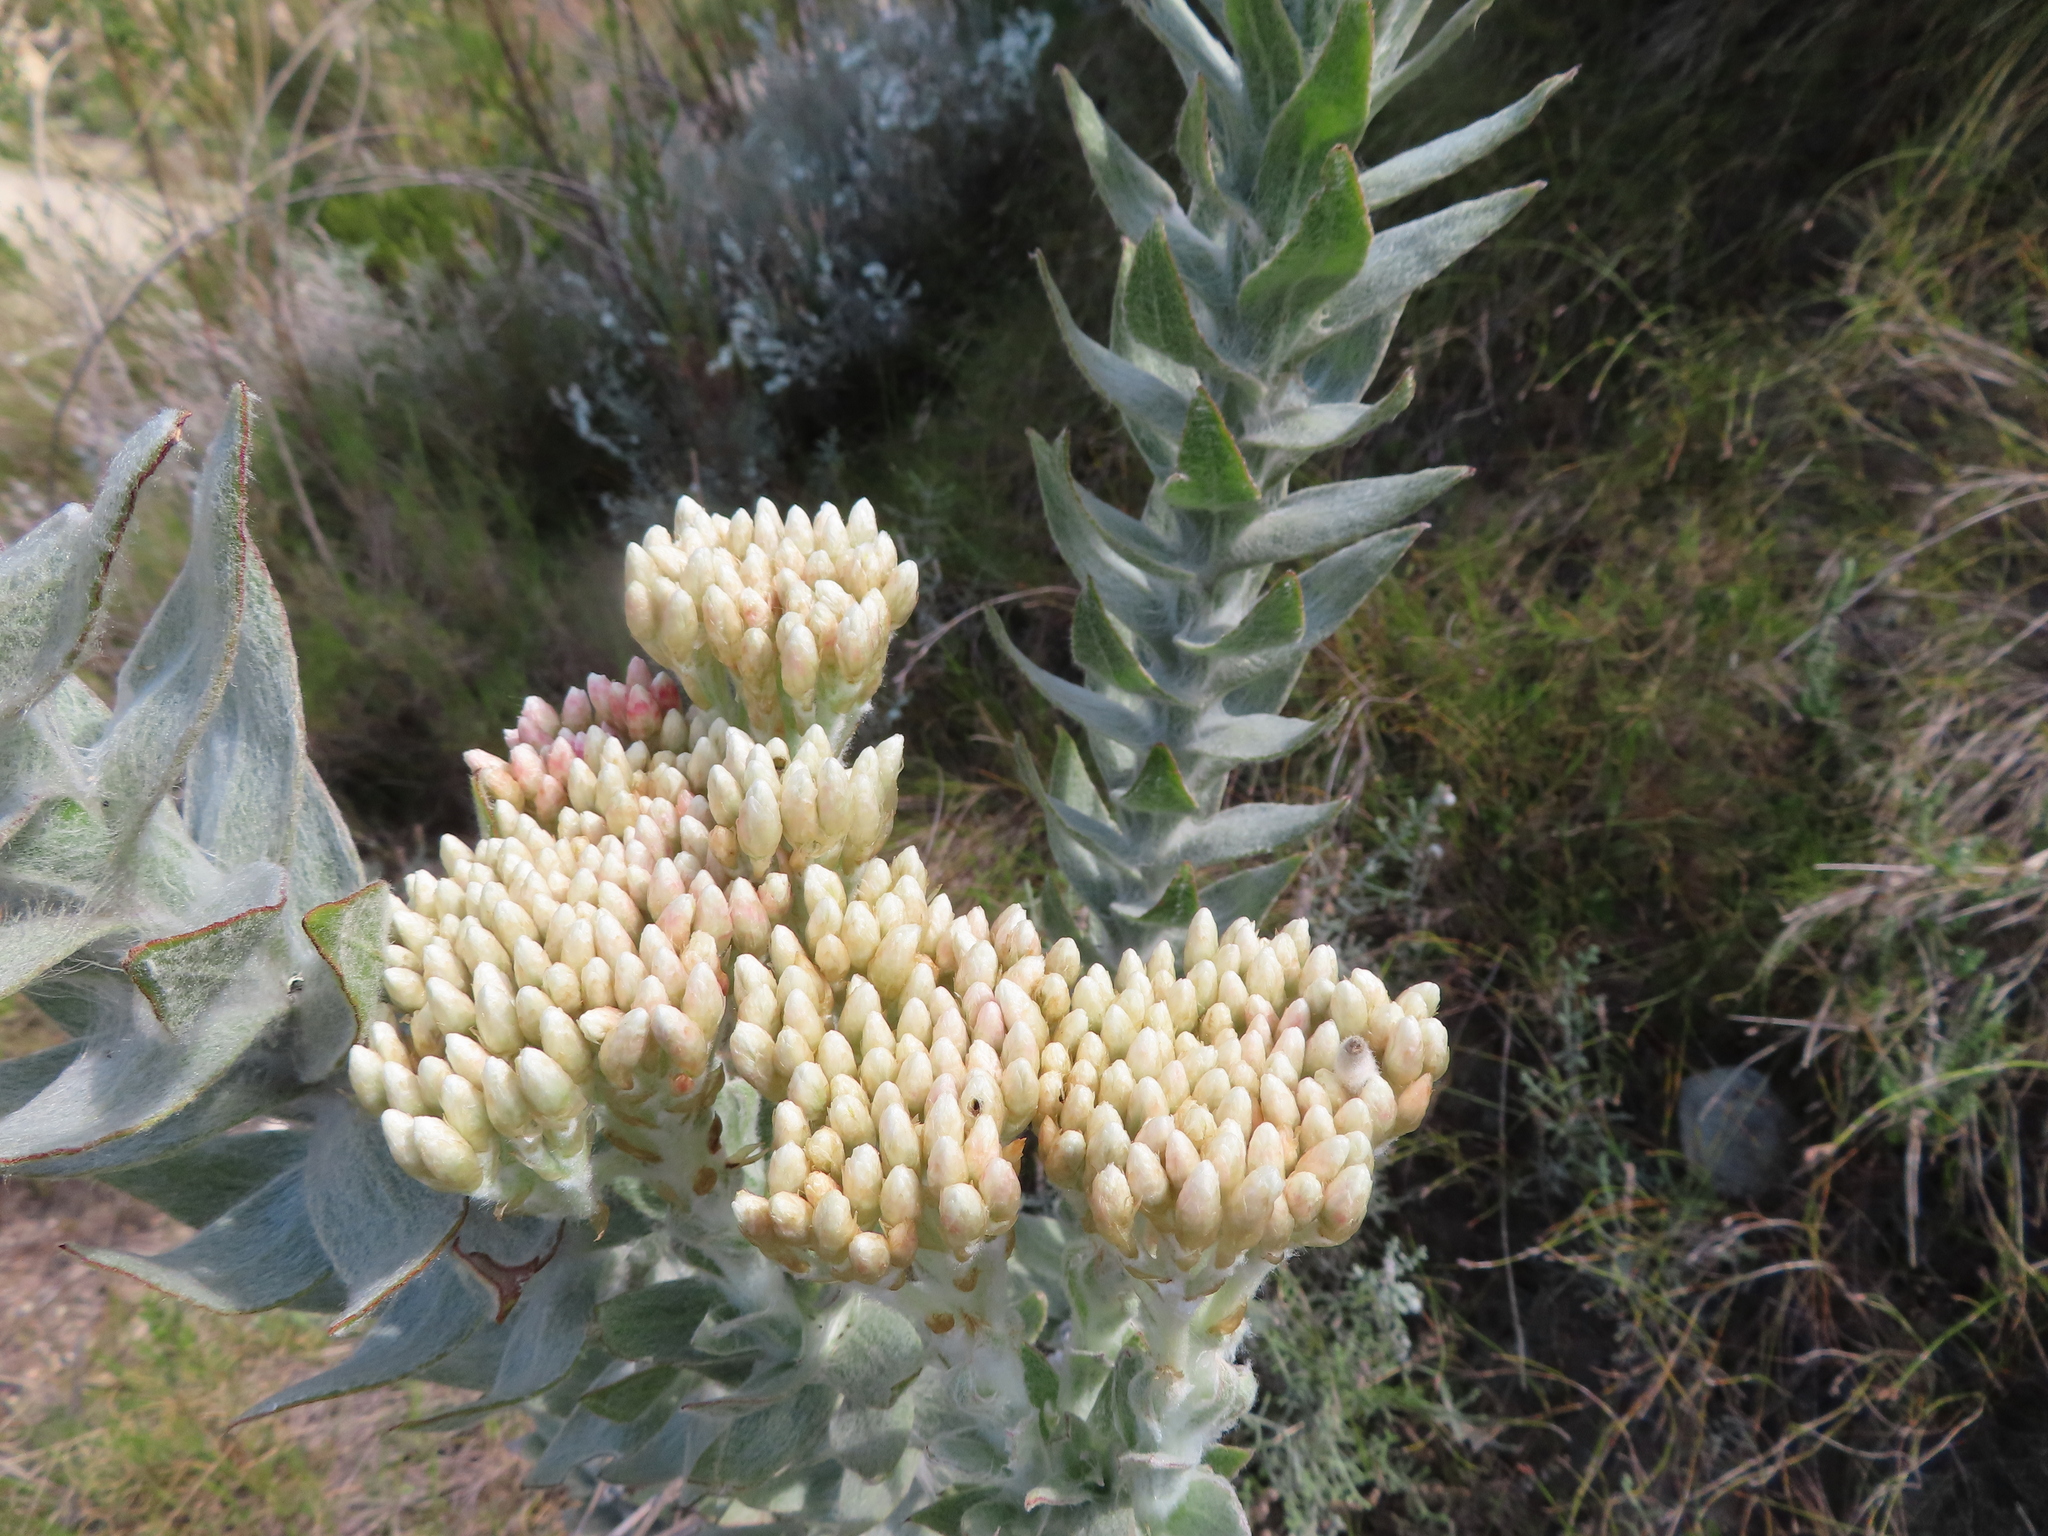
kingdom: Plantae
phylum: Tracheophyta
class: Magnoliopsida
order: Asterales
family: Asteraceae
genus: Syncarpha
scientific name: Syncarpha milleflora
